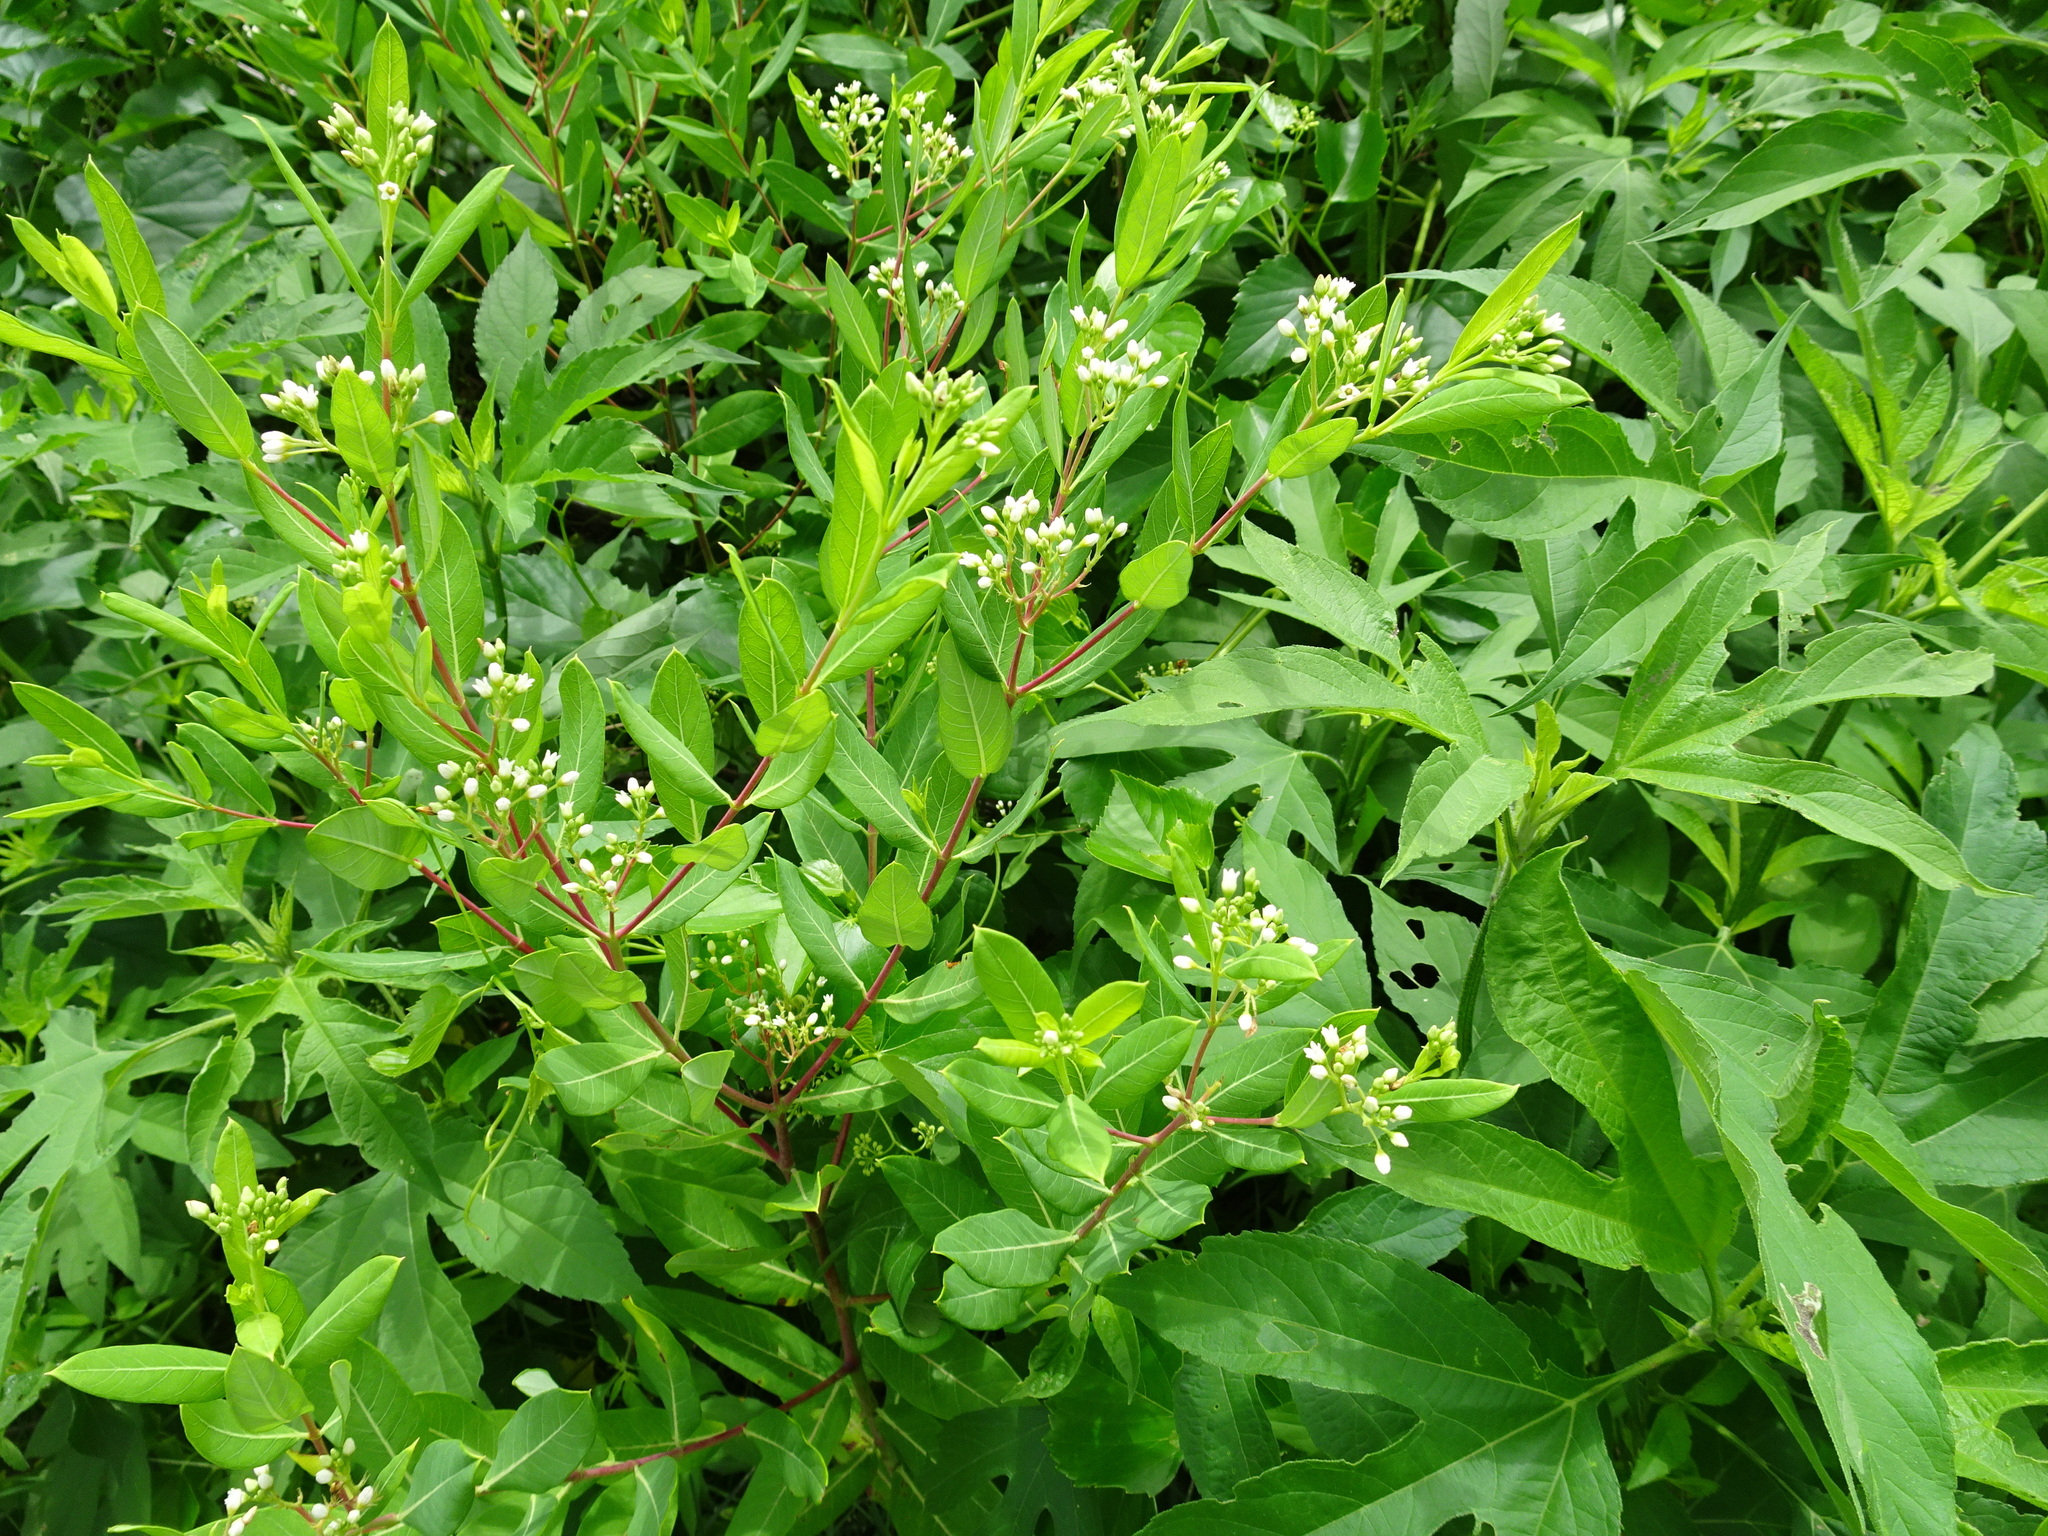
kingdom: Plantae
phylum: Tracheophyta
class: Magnoliopsida
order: Gentianales
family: Apocynaceae
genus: Apocynum
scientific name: Apocynum cannabinum
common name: Hemp dogbane
